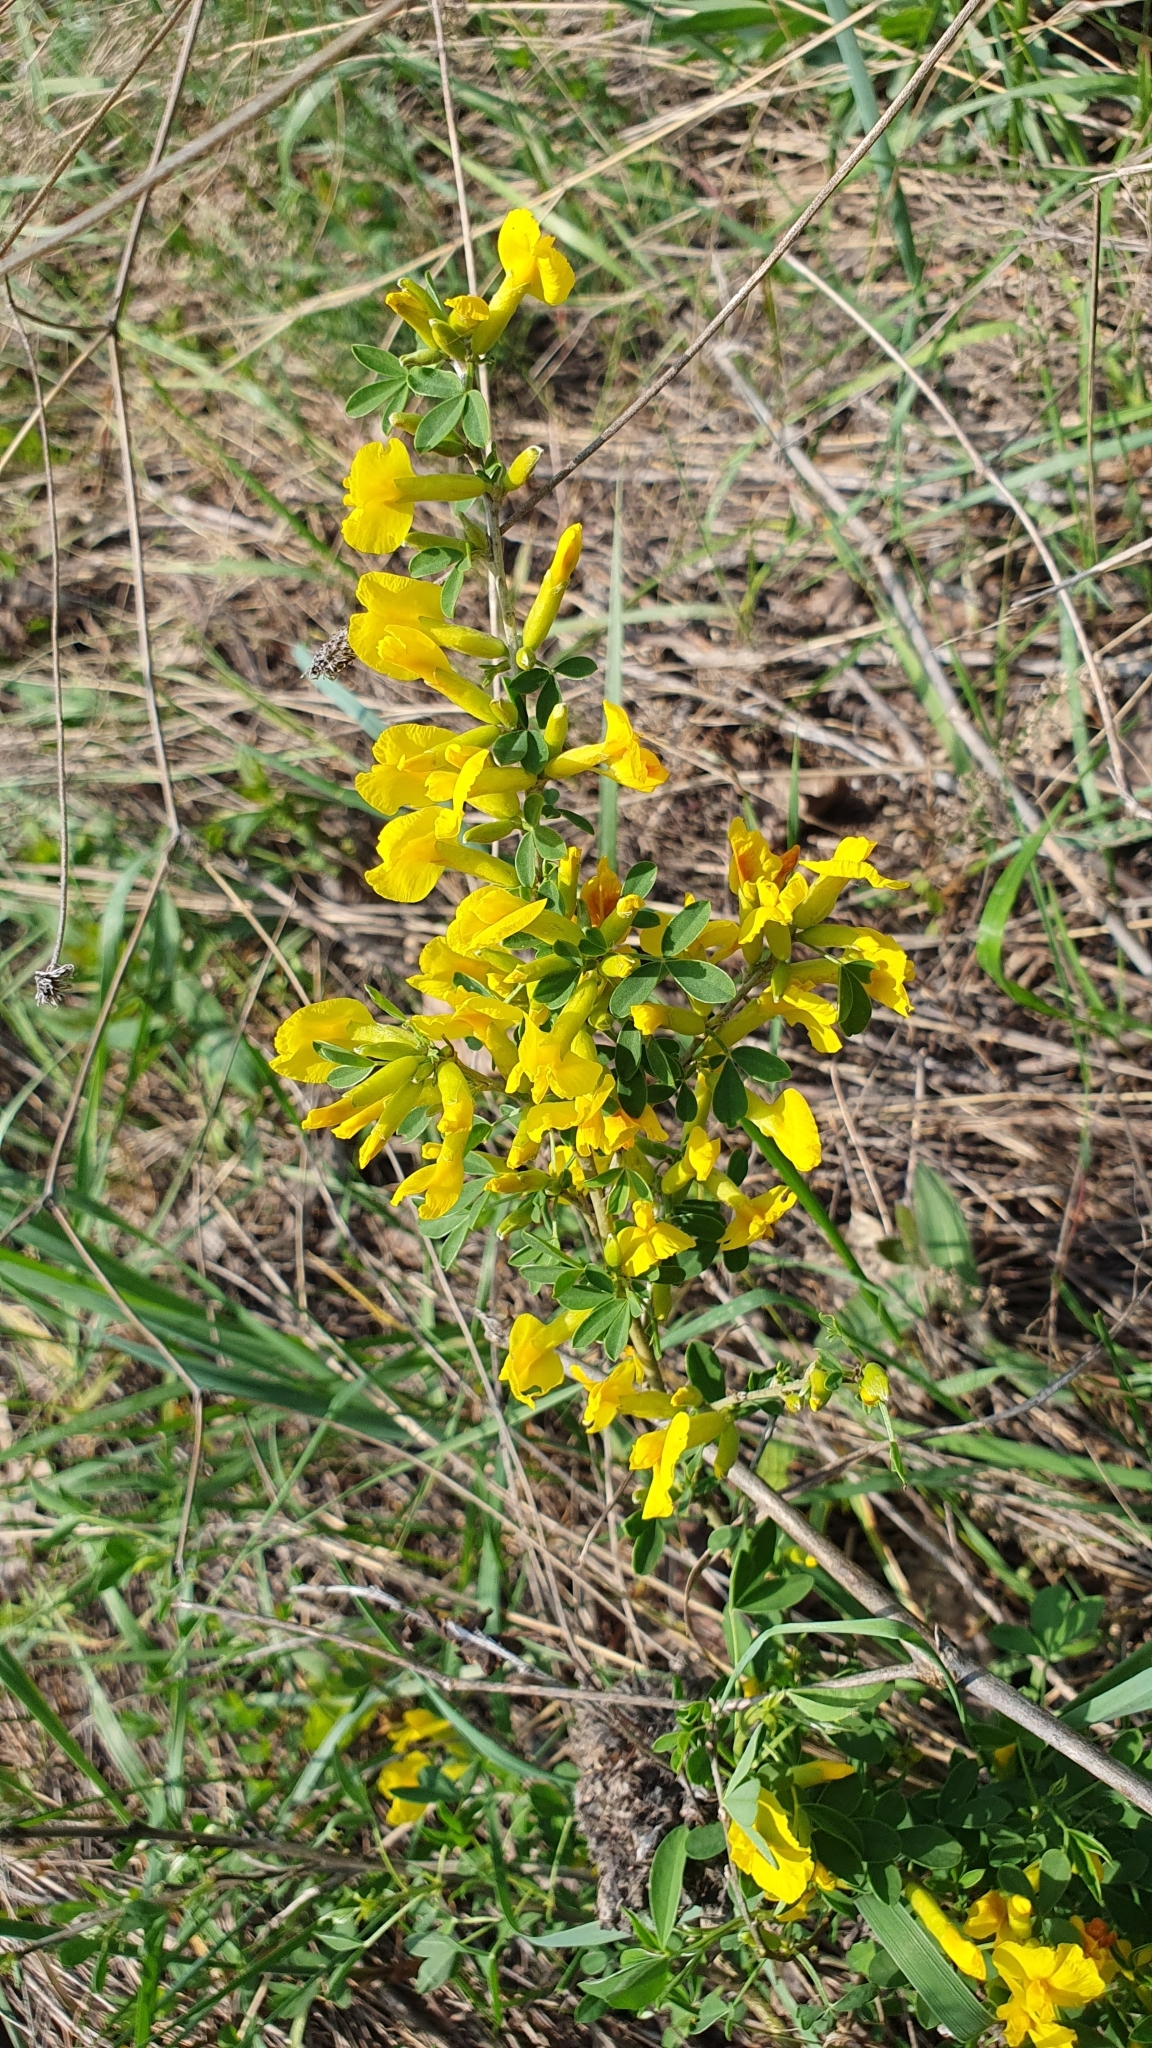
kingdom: Plantae
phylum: Tracheophyta
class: Magnoliopsida
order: Fabales
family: Fabaceae
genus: Chamaecytisus
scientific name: Chamaecytisus ruthenicus
